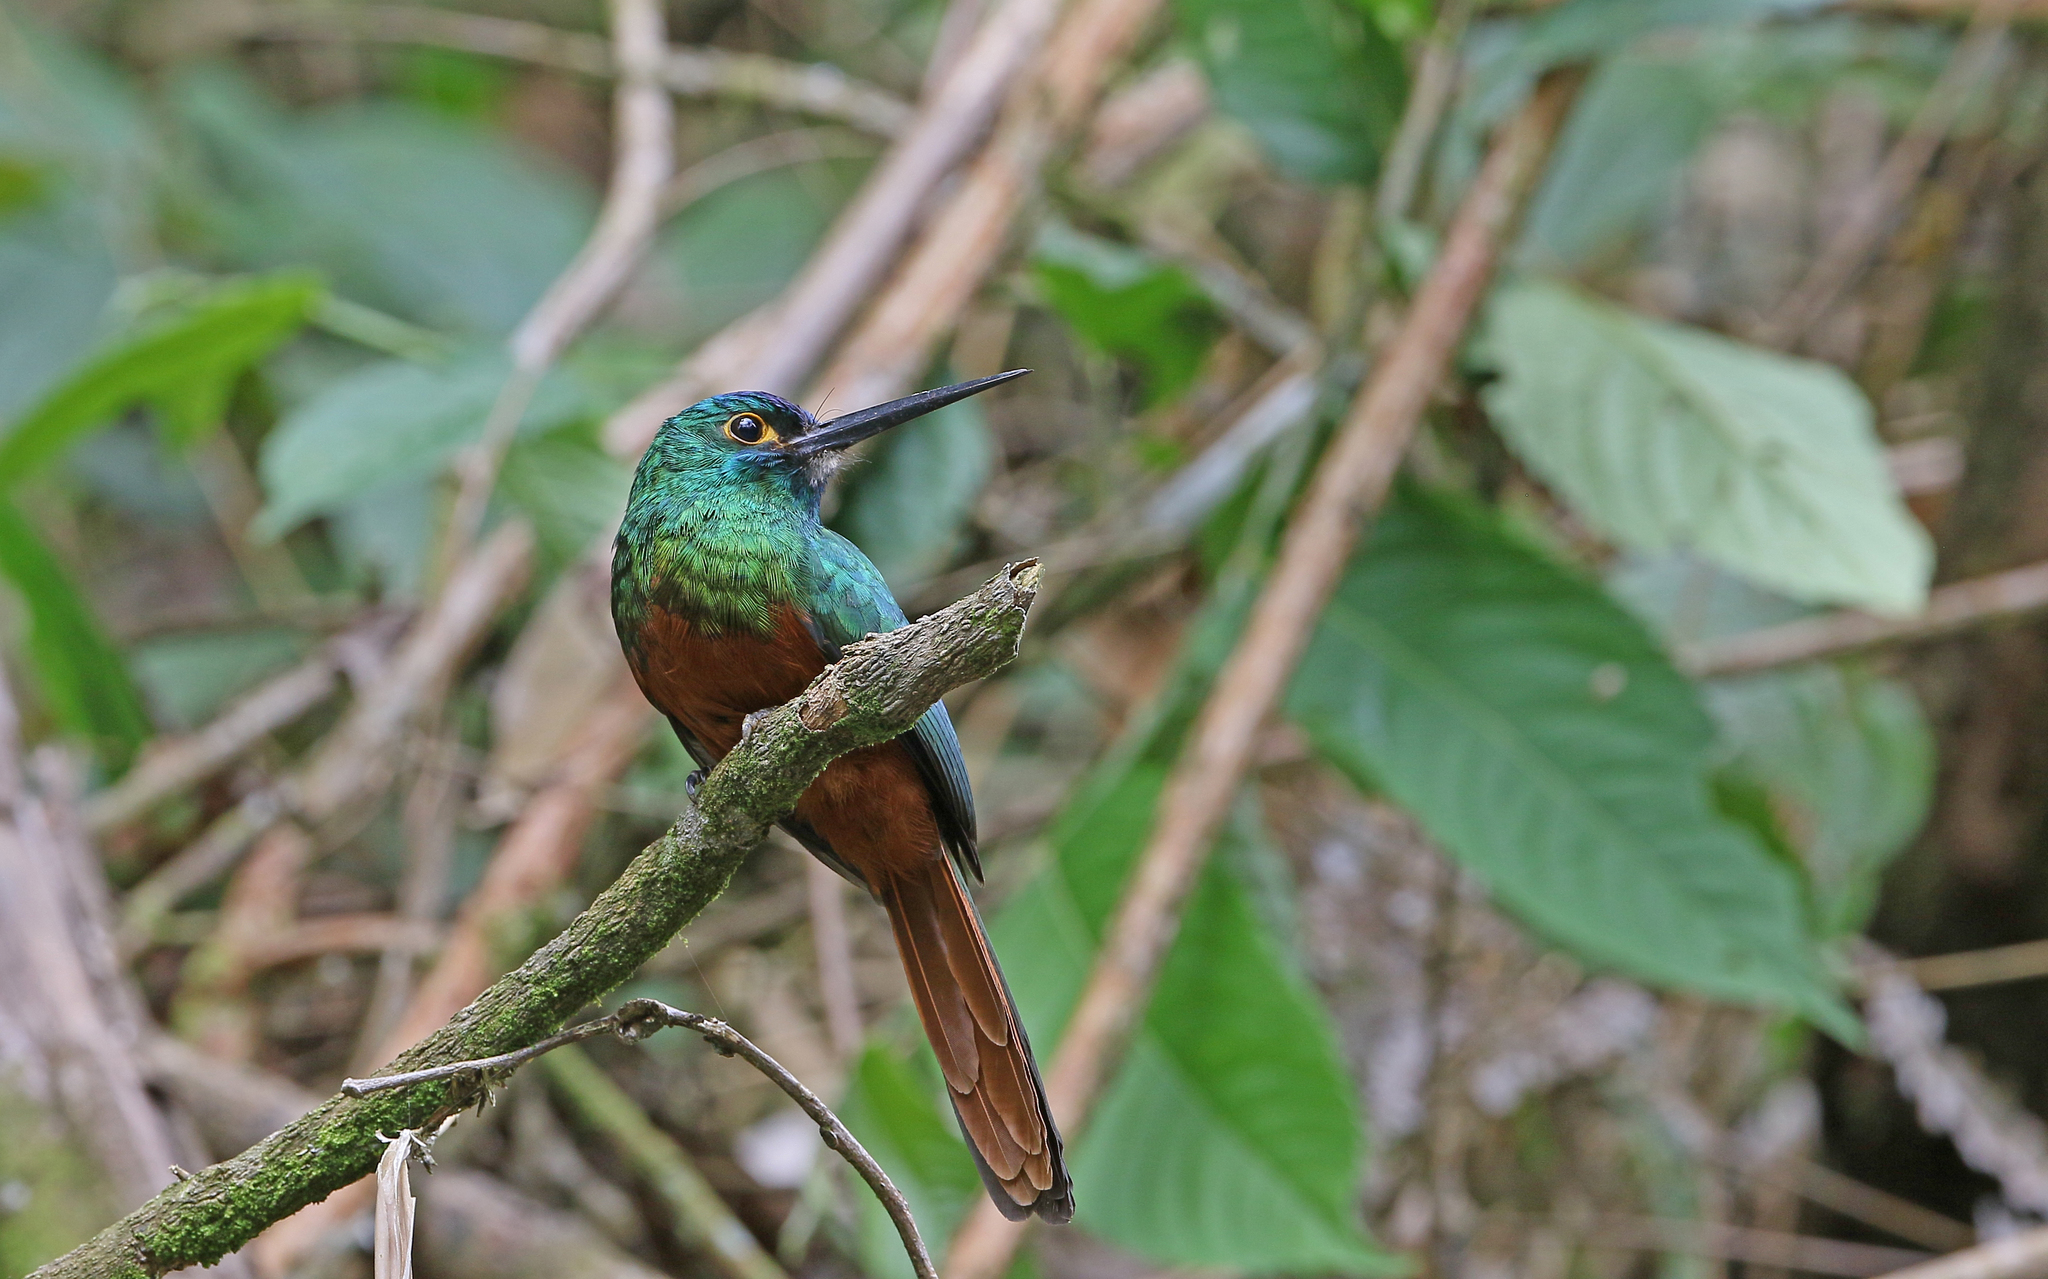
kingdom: Animalia
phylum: Chordata
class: Aves
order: Piciformes
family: Galbulidae
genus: Galbula
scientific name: Galbula pastazae
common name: Coppery-chested jacamar
